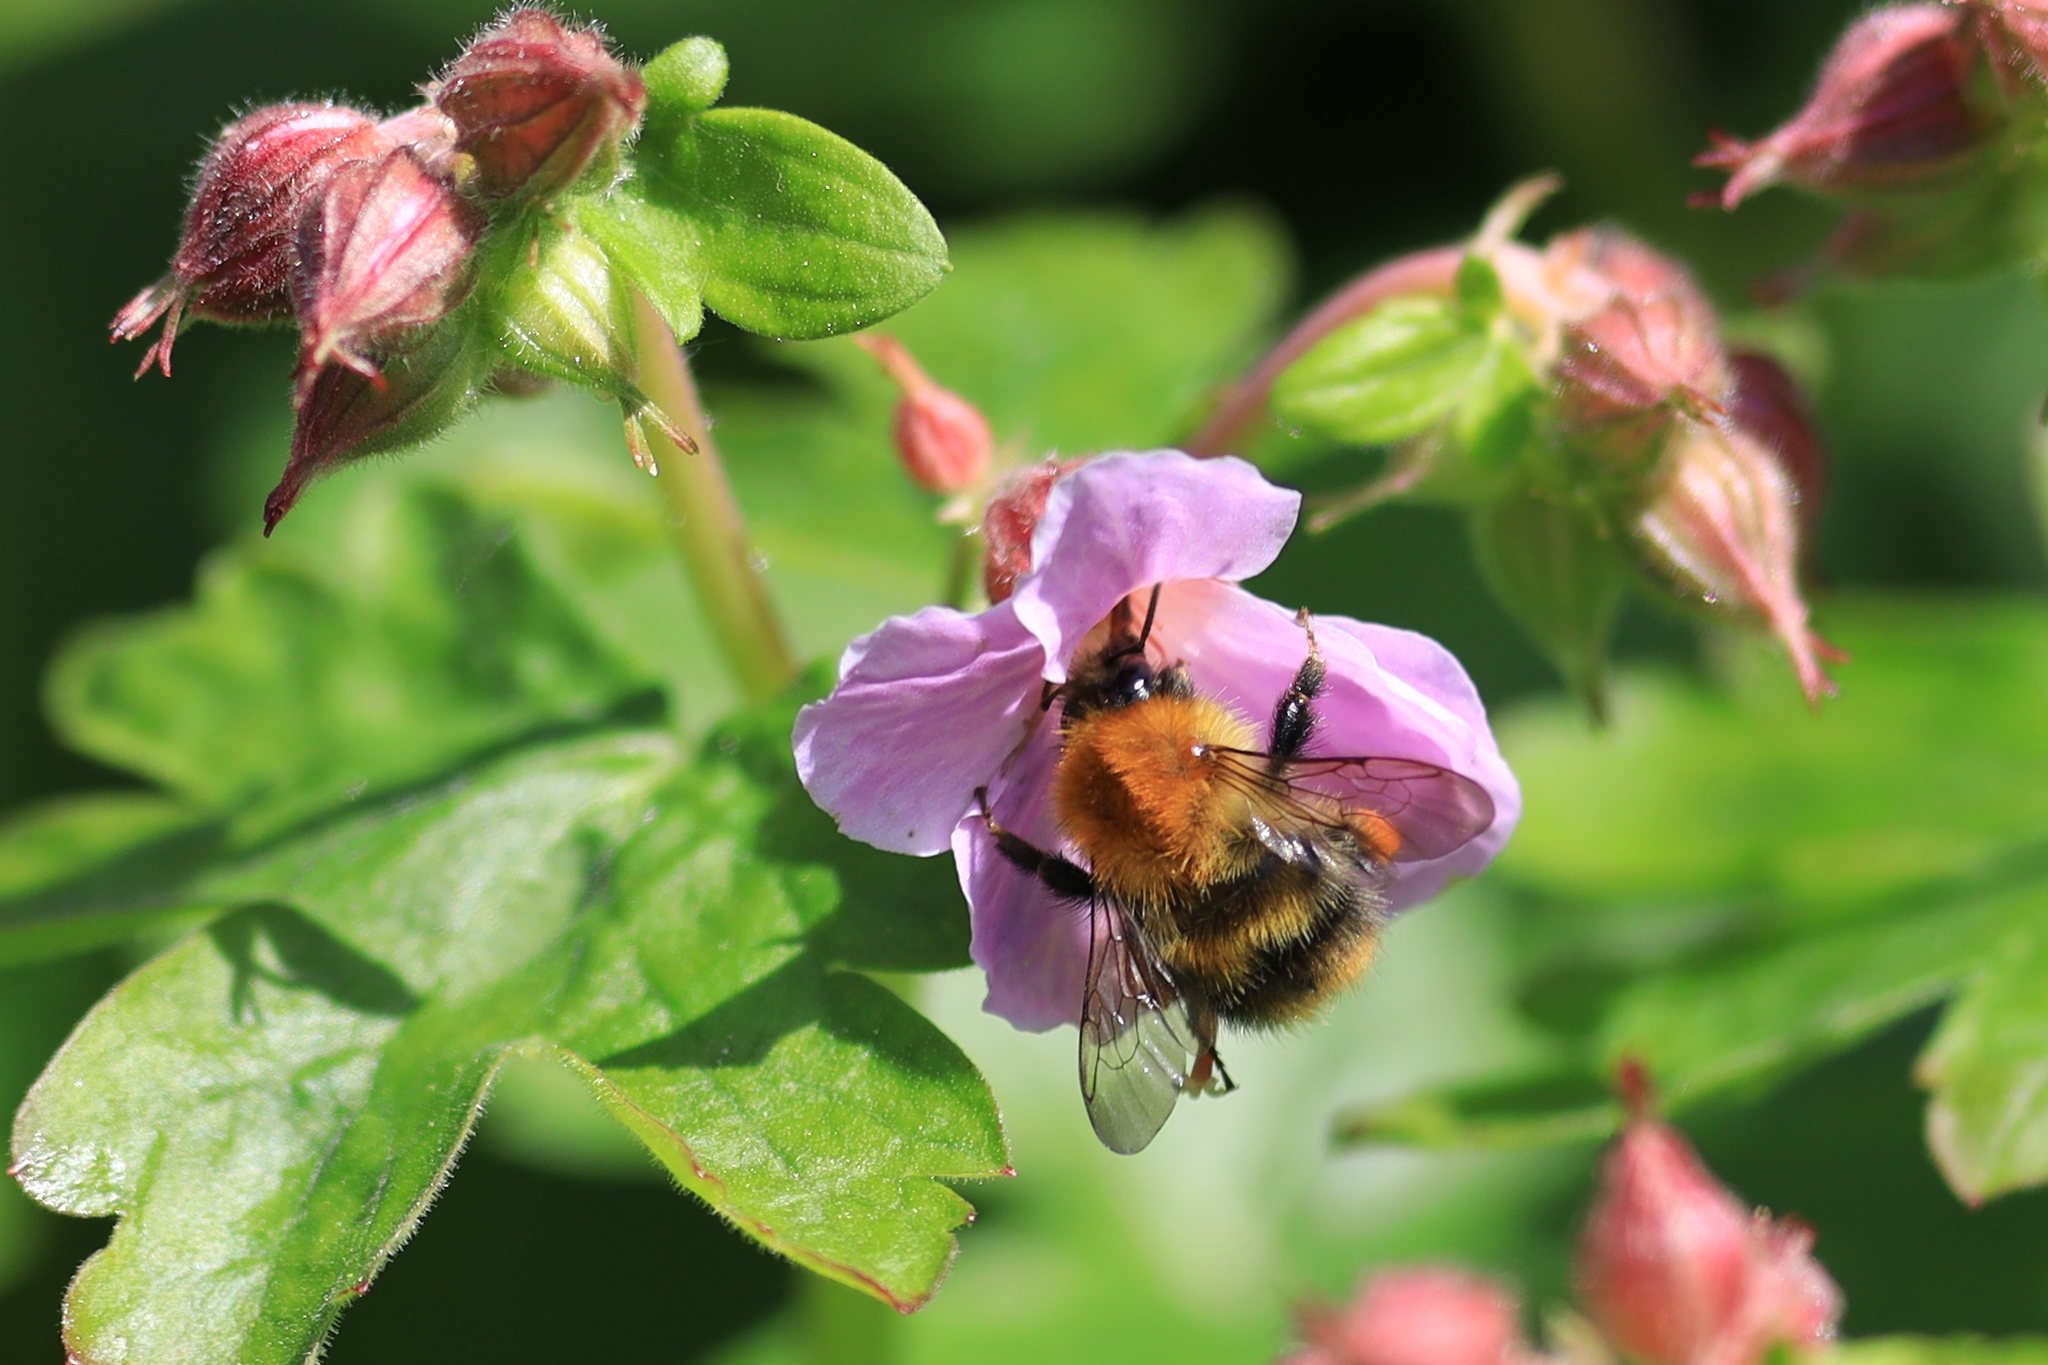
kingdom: Animalia
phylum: Arthropoda
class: Insecta
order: Hymenoptera
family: Apidae
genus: Bombus
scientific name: Bombus pascuorum
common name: Common carder bee
